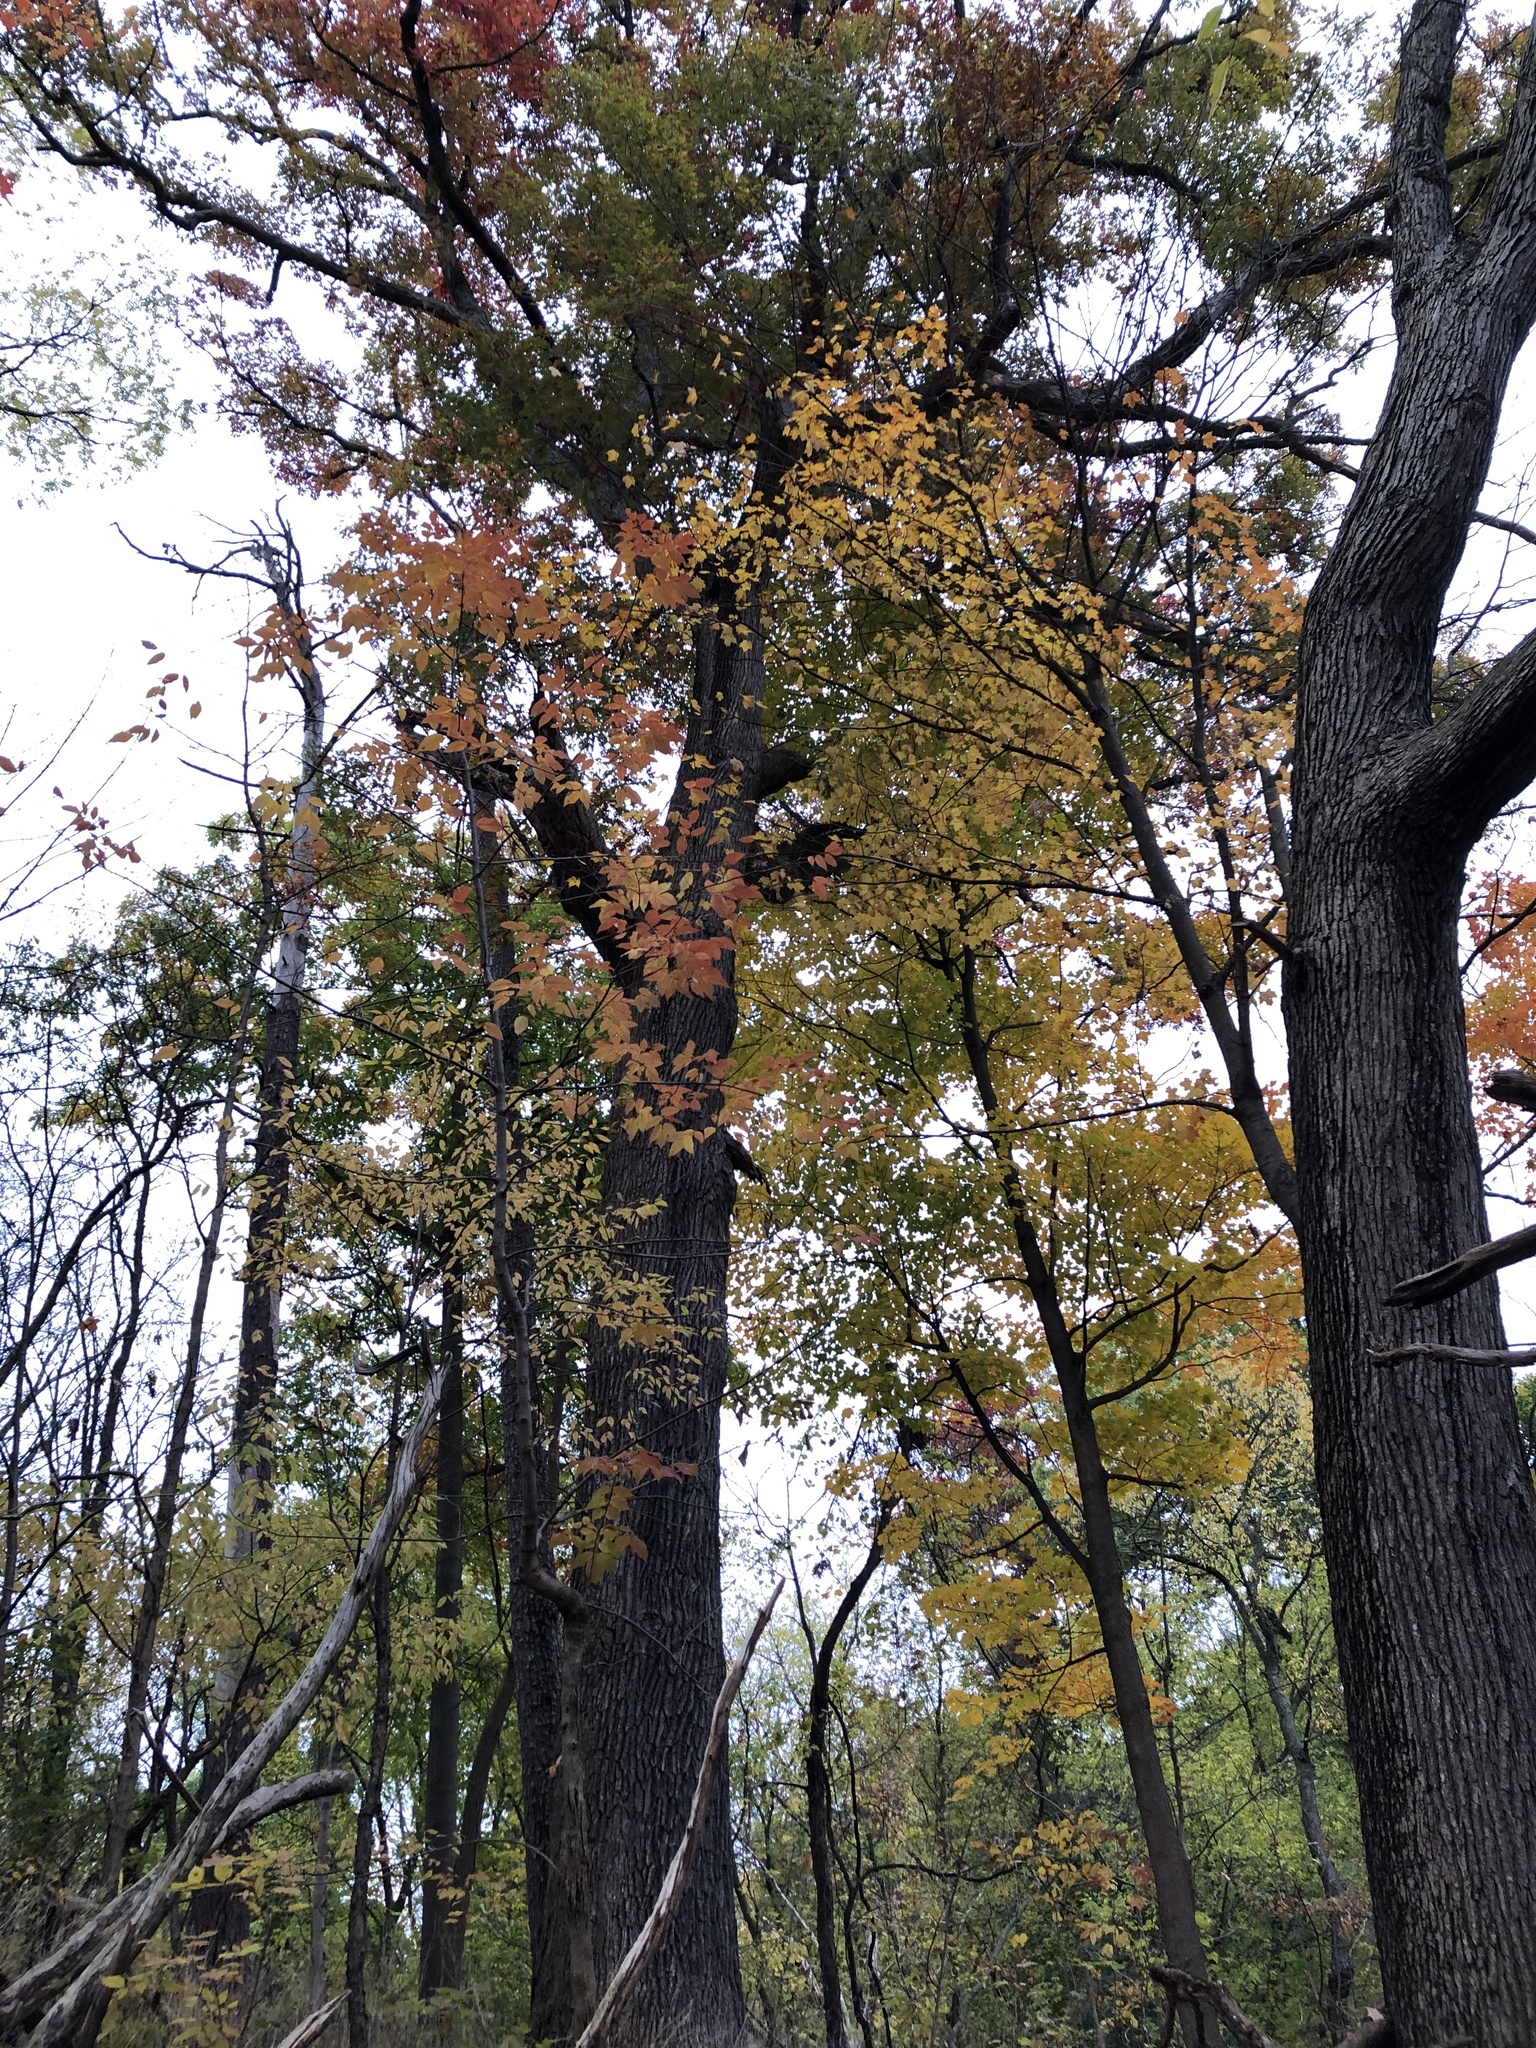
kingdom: Plantae
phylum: Tracheophyta
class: Magnoliopsida
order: Fagales
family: Fagaceae
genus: Quercus
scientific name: Quercus alba
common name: White oak
